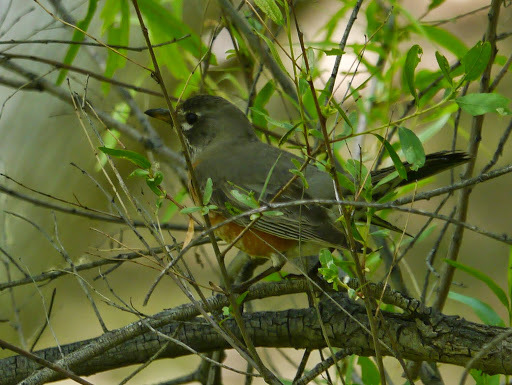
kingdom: Animalia
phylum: Chordata
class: Aves
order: Passeriformes
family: Turdidae
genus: Turdus
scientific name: Turdus migratorius
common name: American robin
